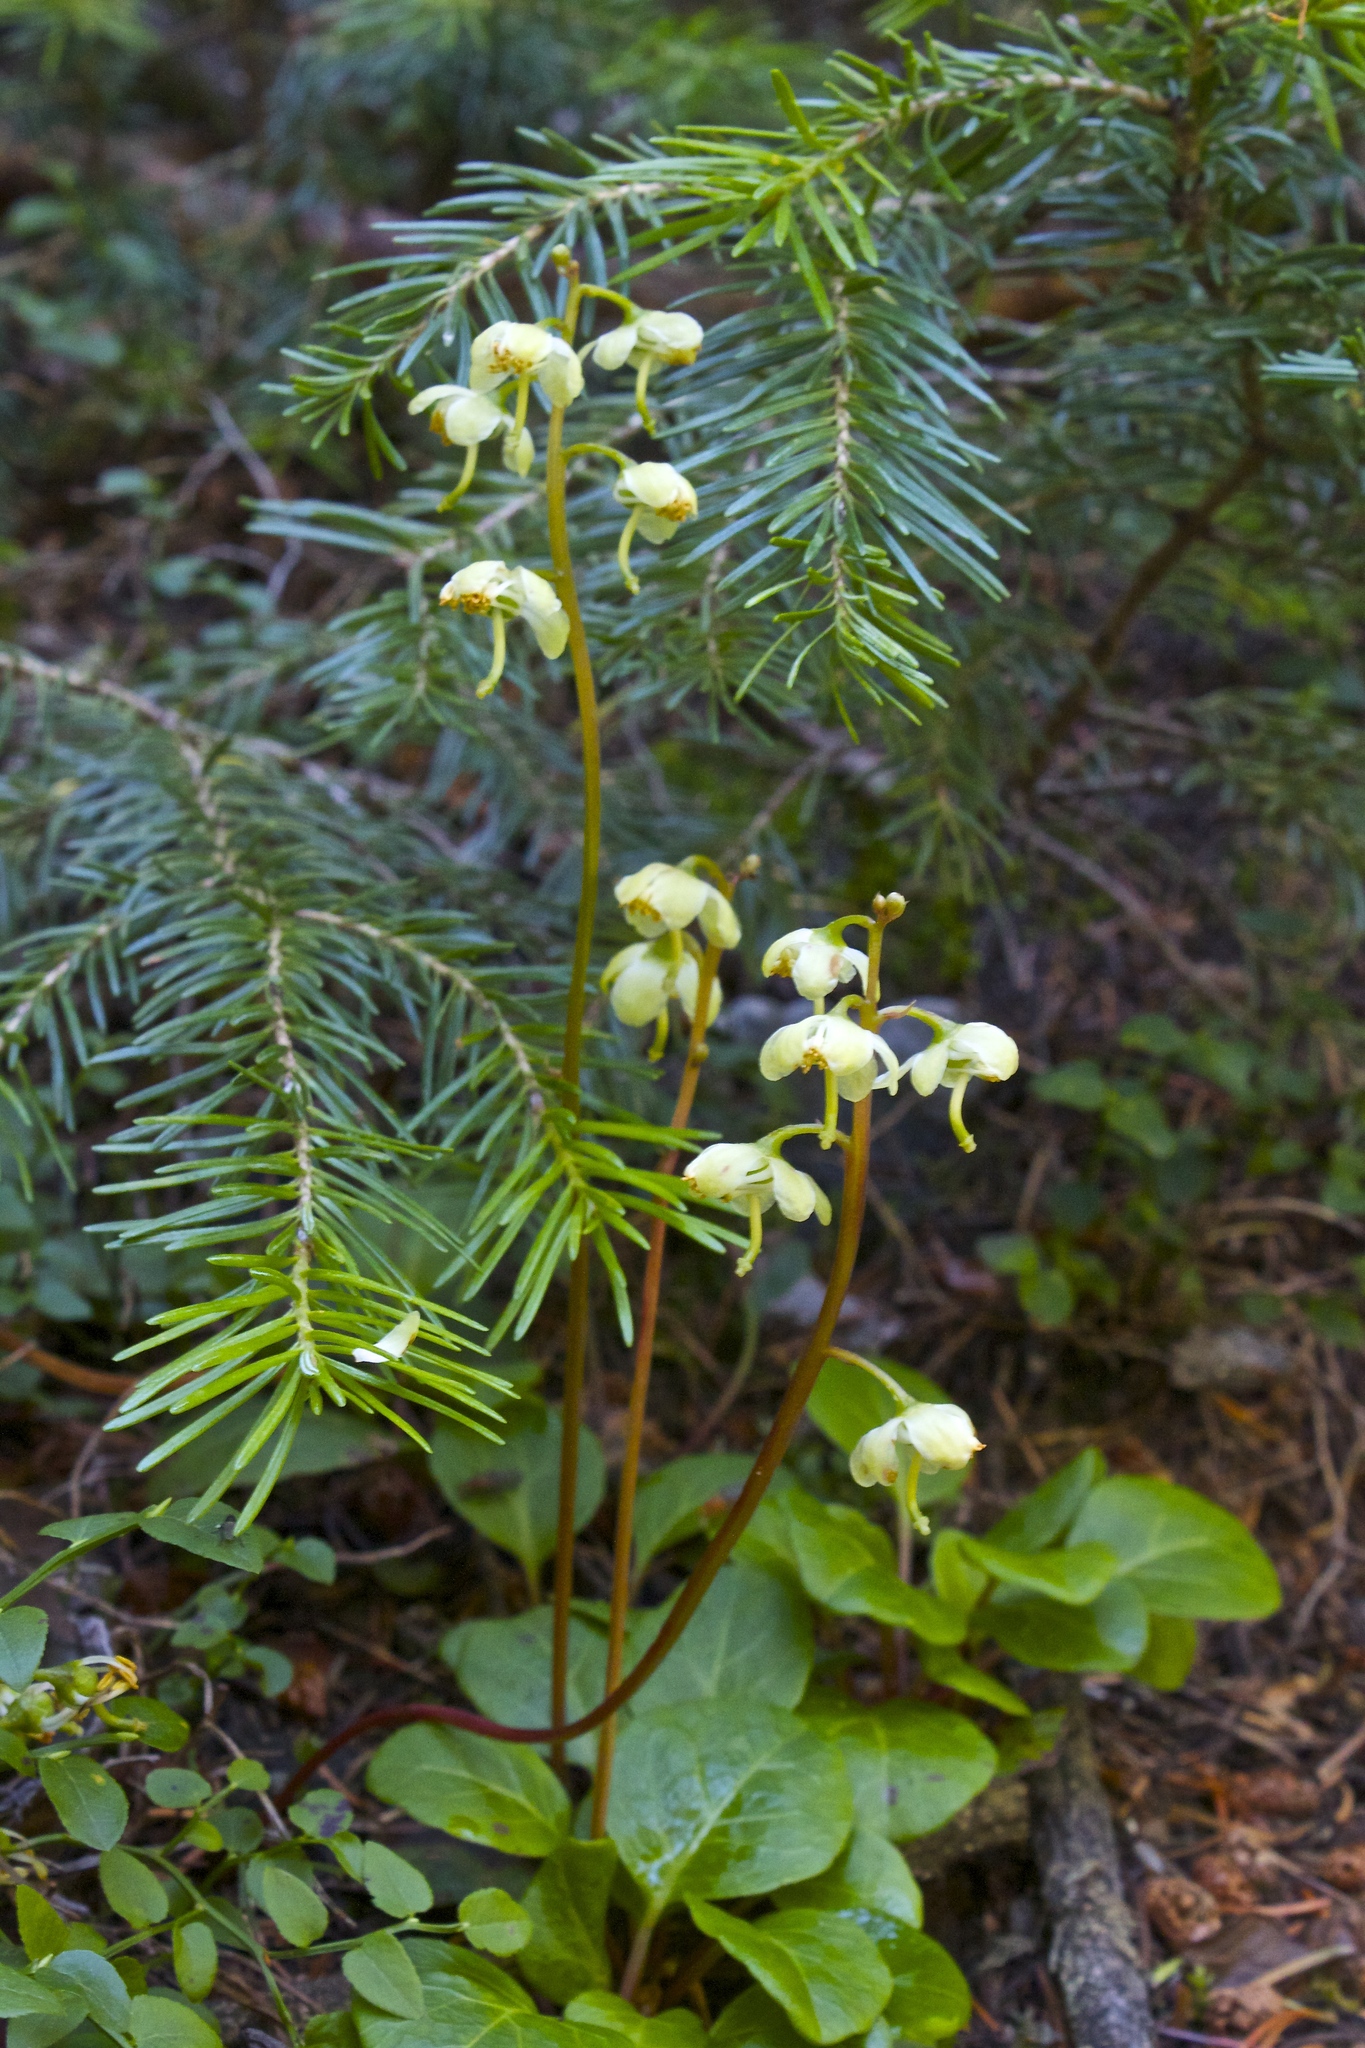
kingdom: Plantae
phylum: Tracheophyta
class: Magnoliopsida
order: Ericales
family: Ericaceae
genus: Pyrola
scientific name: Pyrola chlorantha
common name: Green wintergreen
